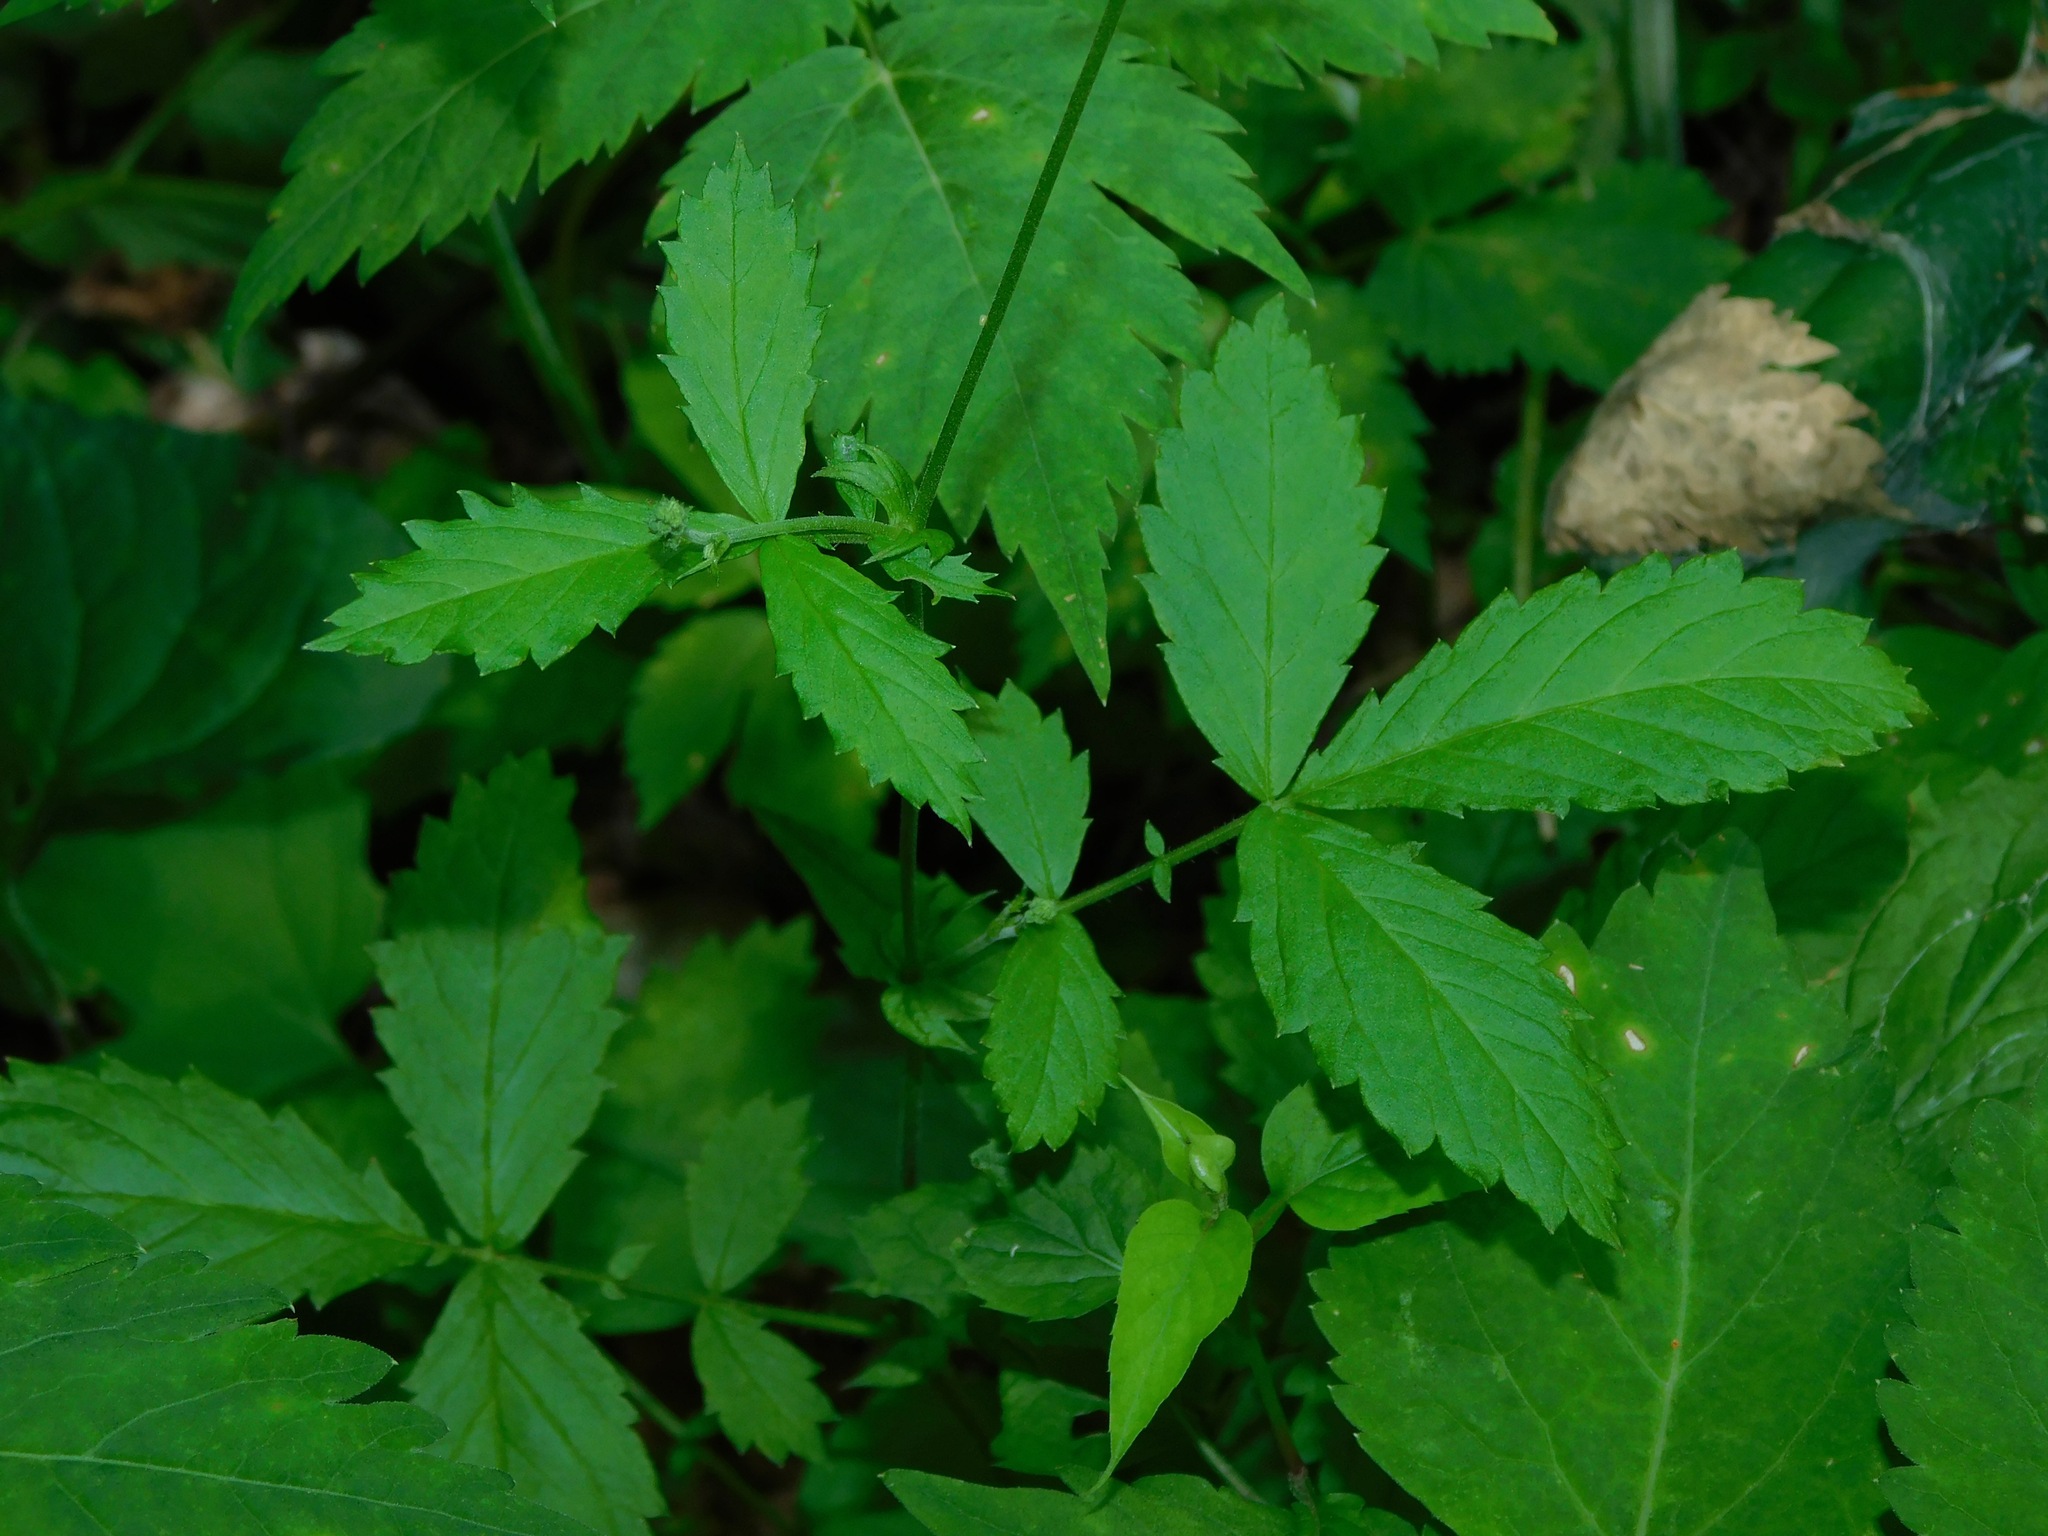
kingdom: Plantae
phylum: Tracheophyta
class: Magnoliopsida
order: Rosales
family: Rosaceae
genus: Agrimonia
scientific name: Agrimonia gryposepala
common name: Common agrimony
